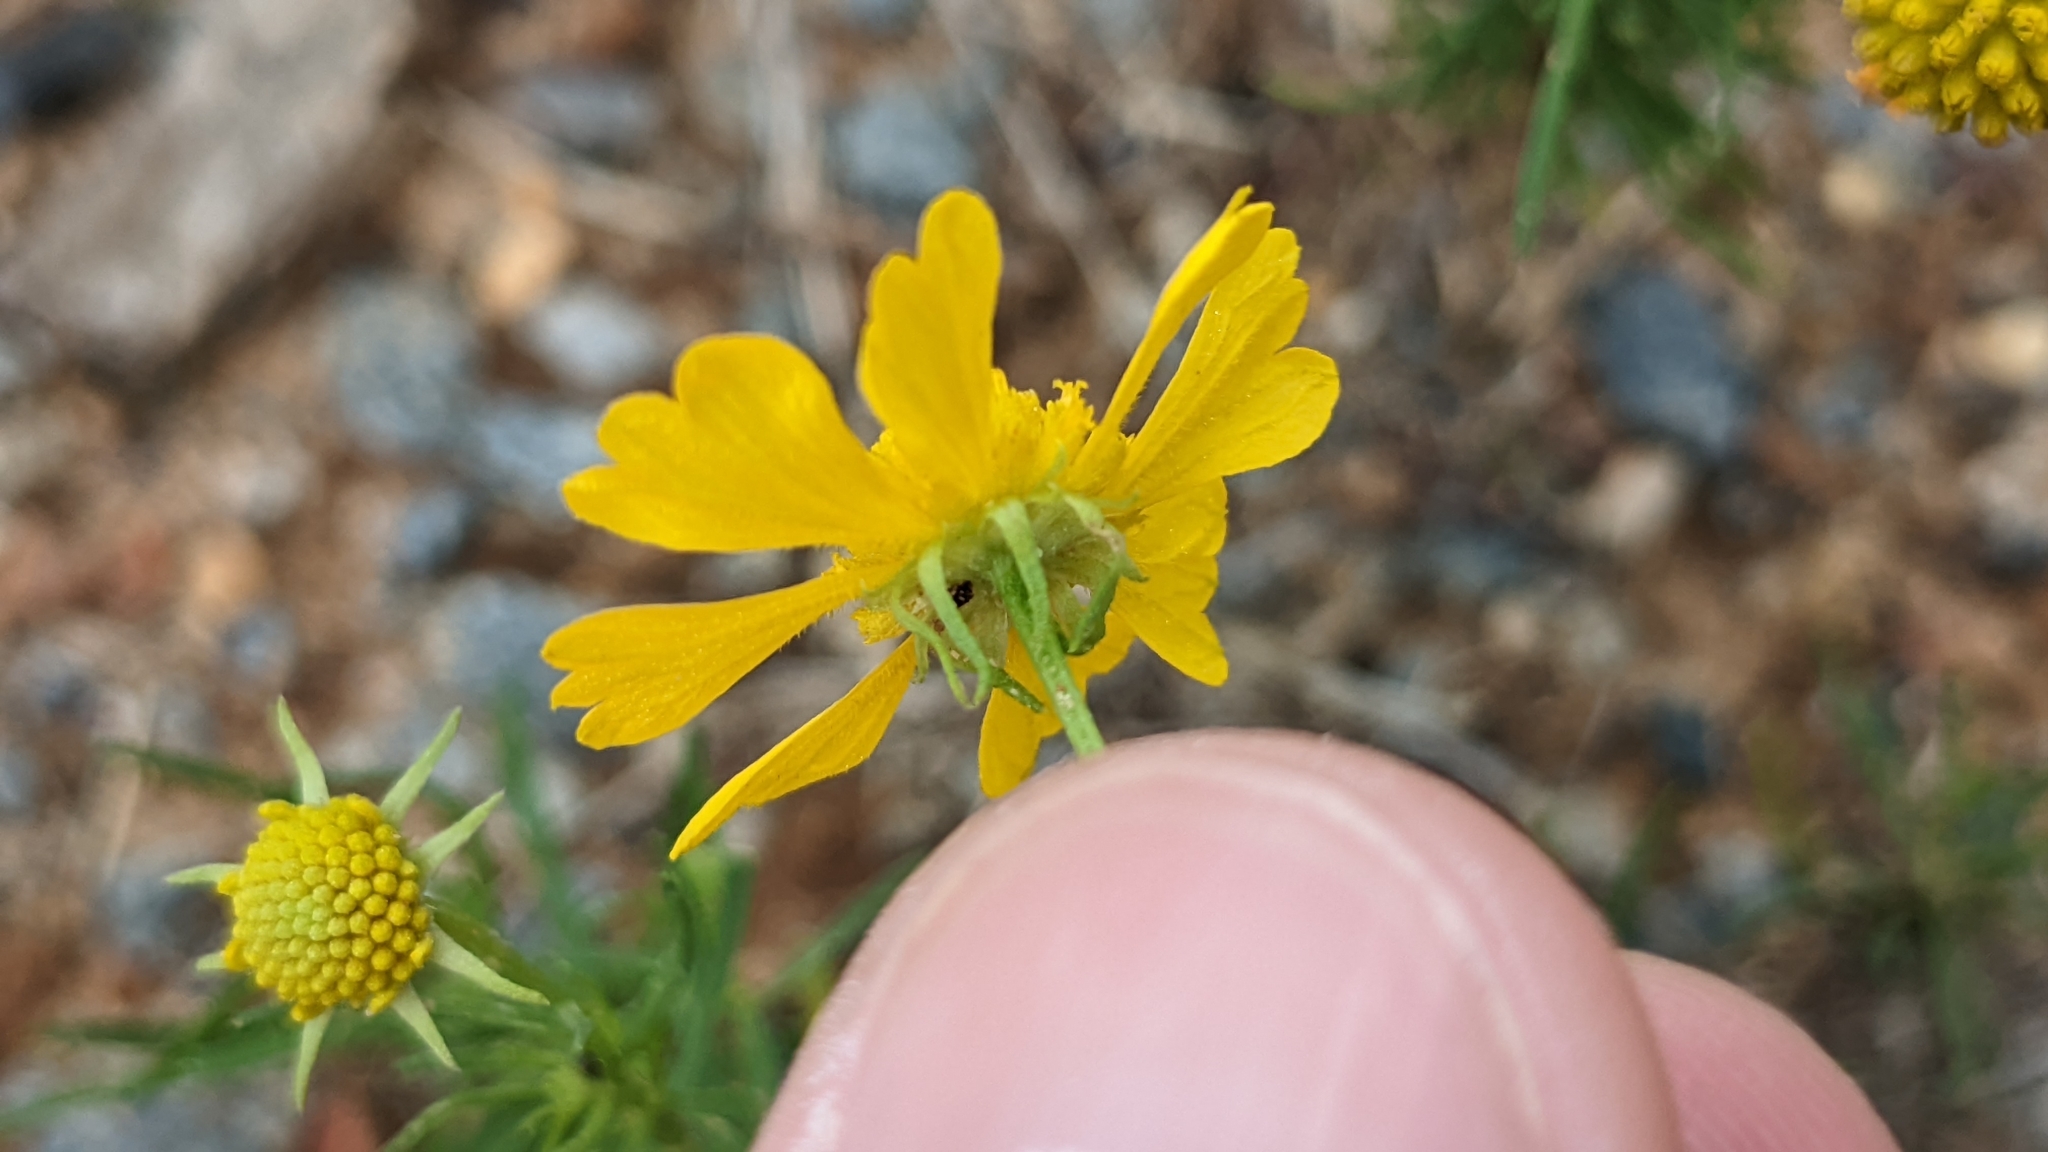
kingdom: Plantae
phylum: Tracheophyta
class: Magnoliopsida
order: Asterales
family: Asteraceae
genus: Helenium
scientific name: Helenium amarum
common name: Bitter sneezeweed
